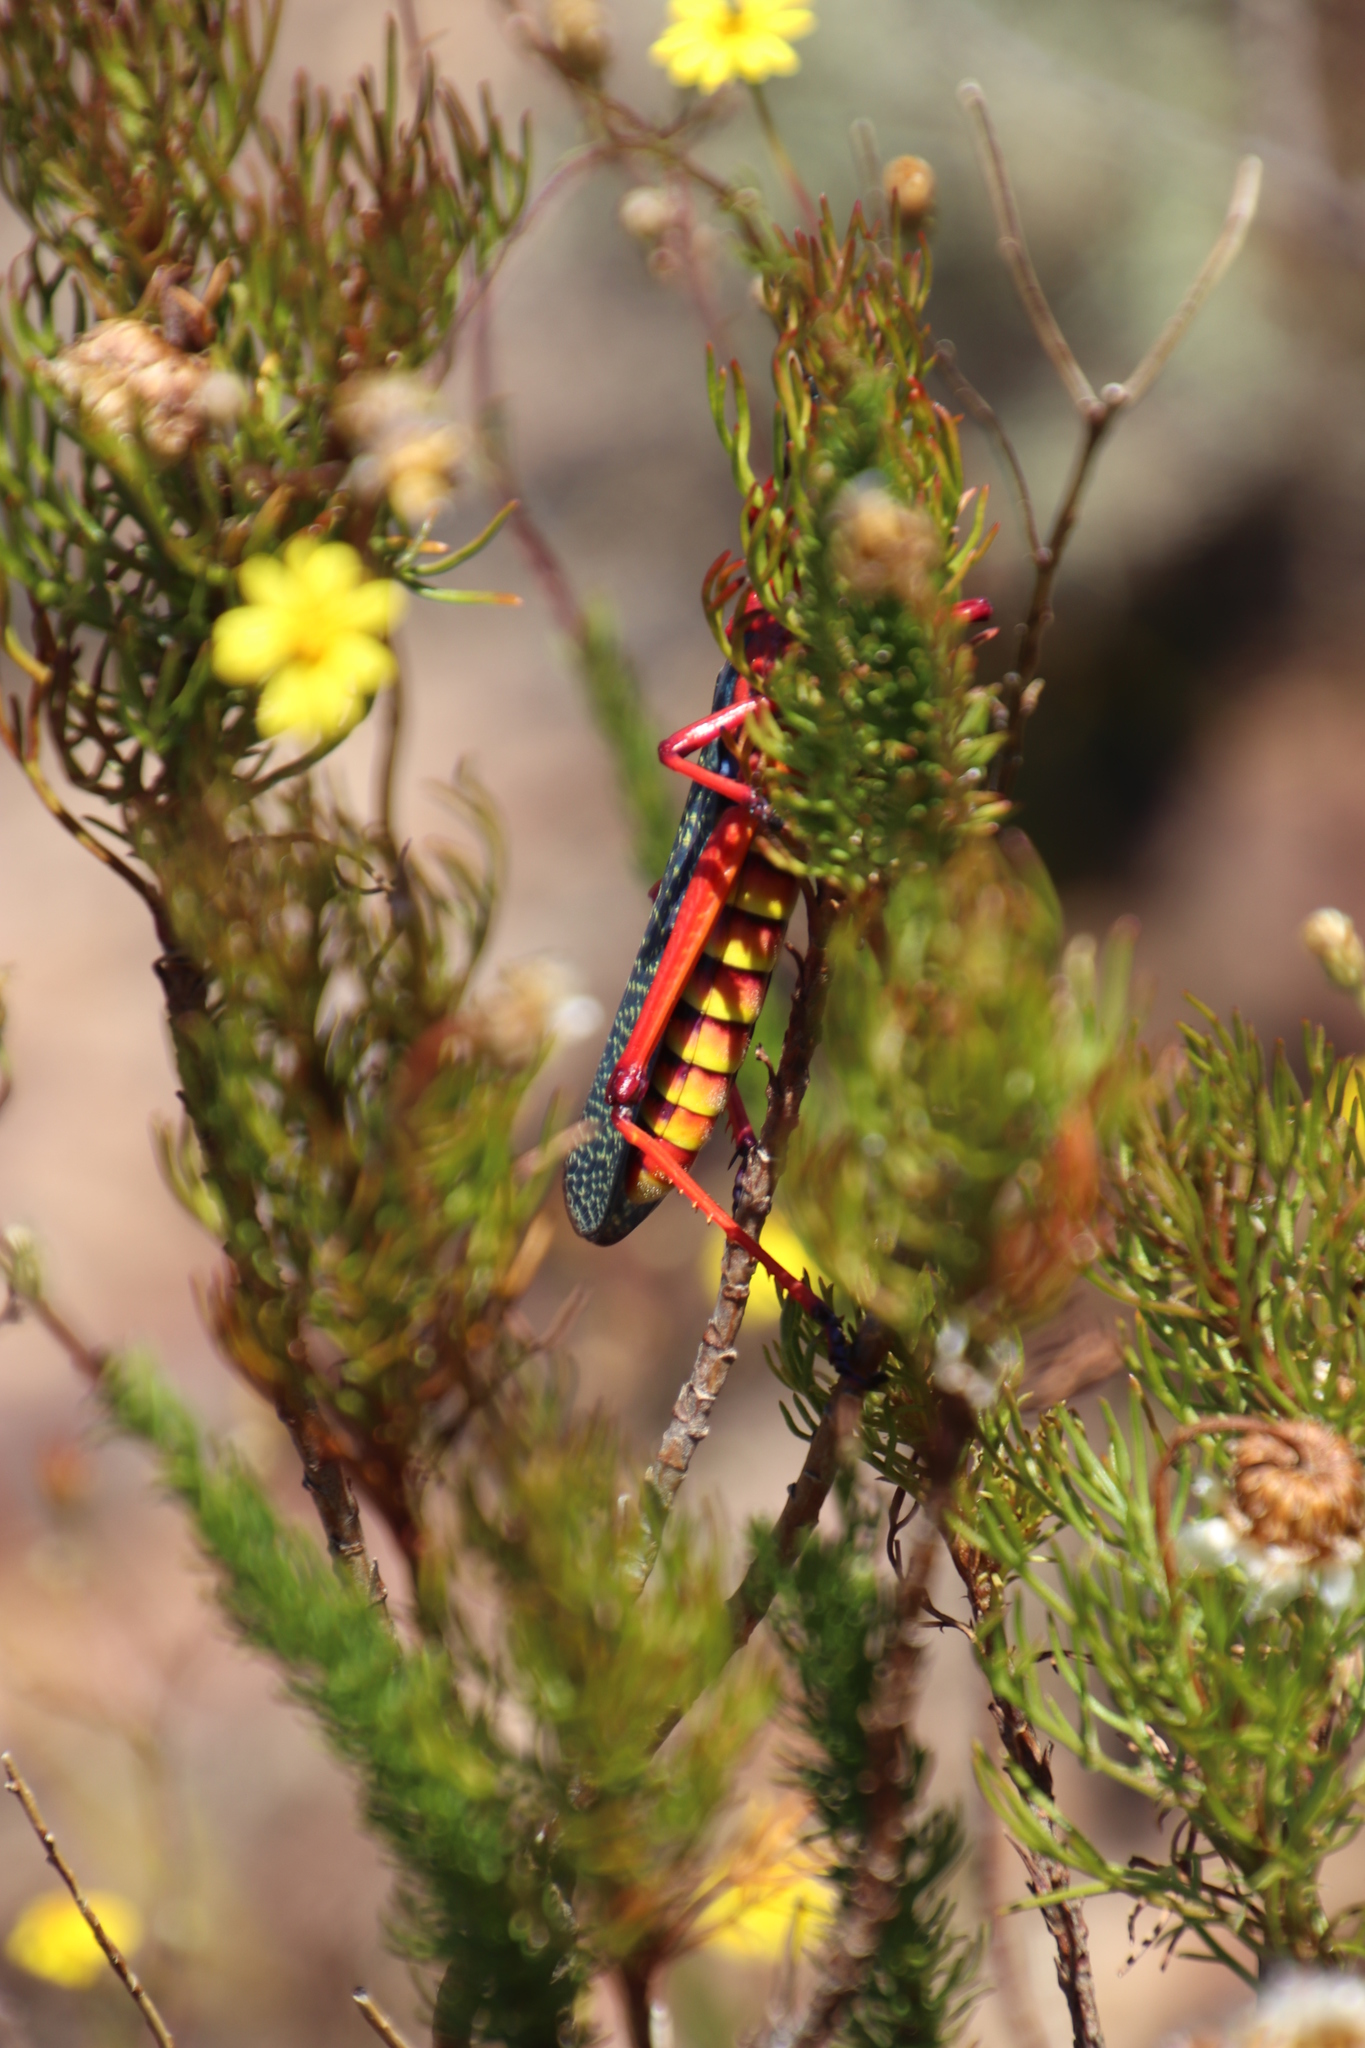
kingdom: Animalia
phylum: Arthropoda
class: Insecta
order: Orthoptera
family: Pyrgomorphidae
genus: Phymateus
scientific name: Phymateus morbillosus
